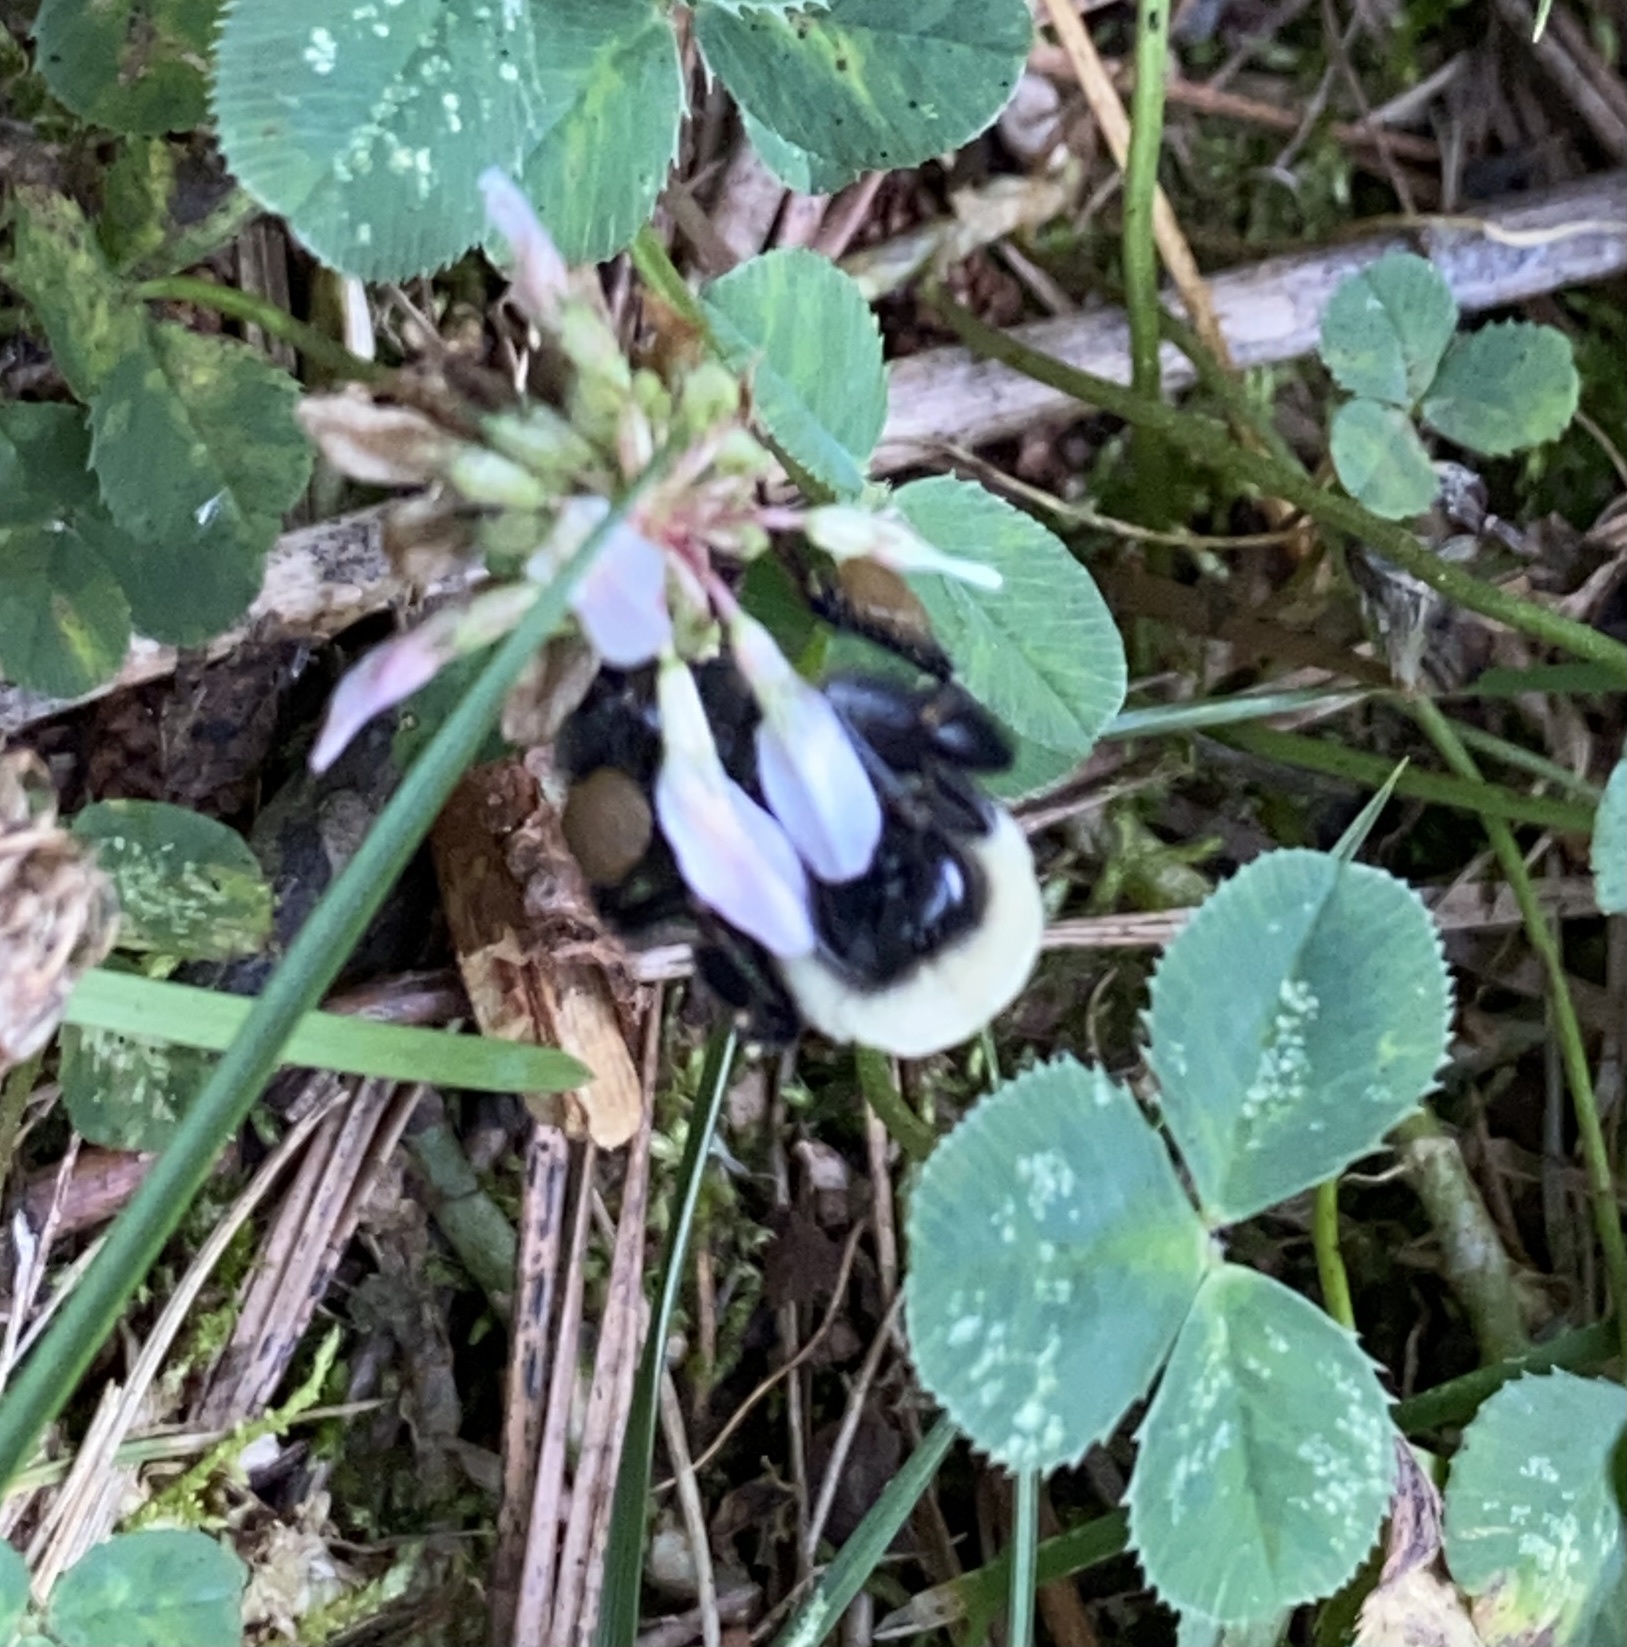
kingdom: Animalia
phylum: Arthropoda
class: Insecta
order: Hymenoptera
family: Apidae
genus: Bombus
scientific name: Bombus impatiens
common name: Common eastern bumble bee
